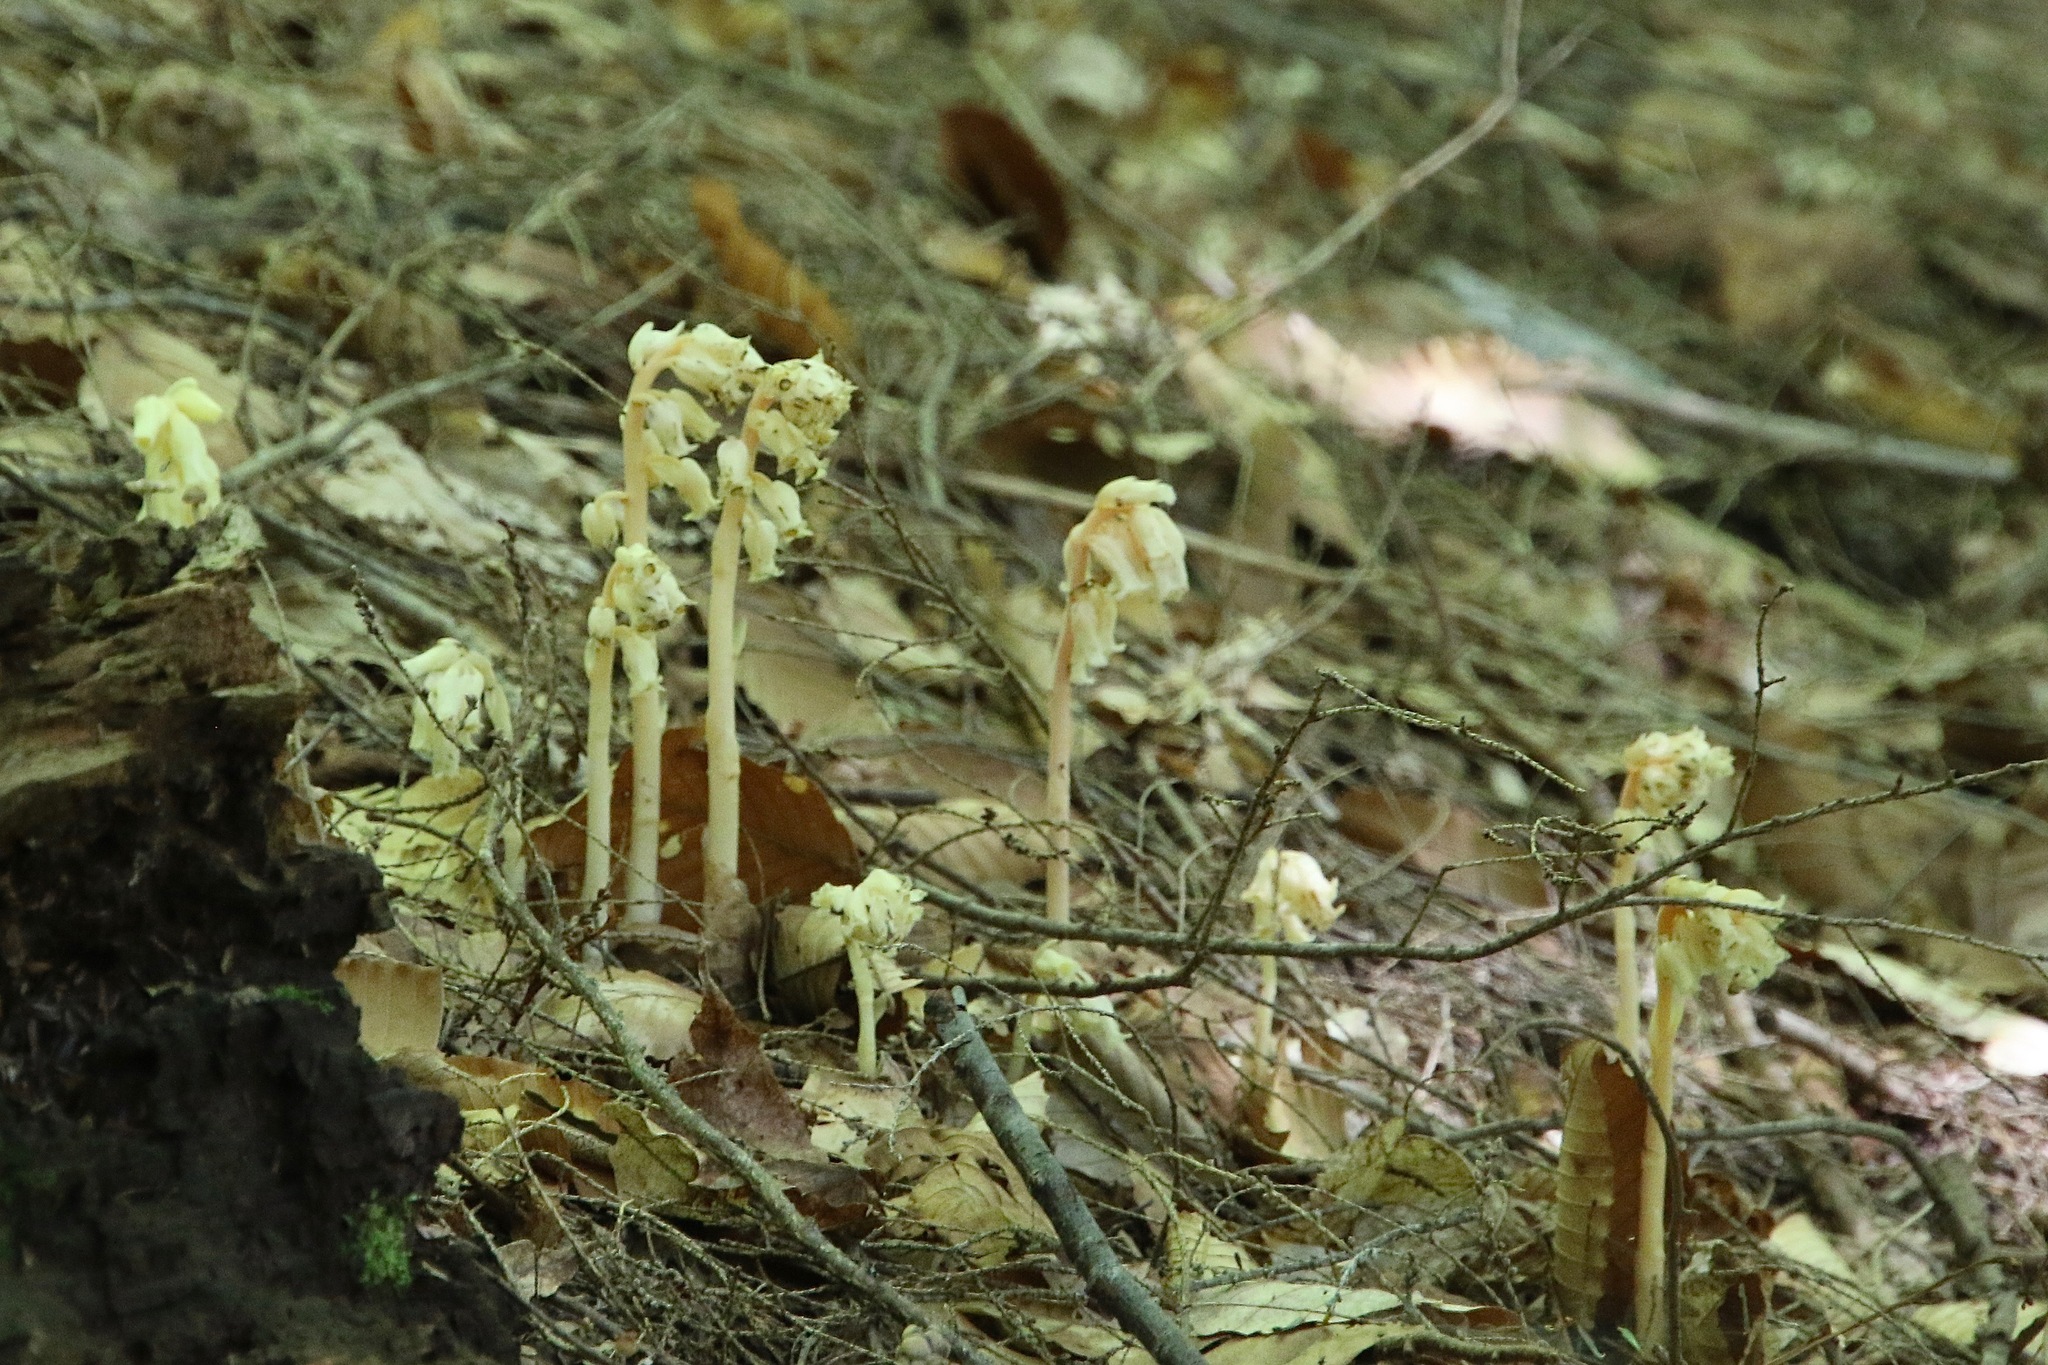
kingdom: Plantae
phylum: Tracheophyta
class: Magnoliopsida
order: Ericales
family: Ericaceae
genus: Hypopitys
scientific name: Hypopitys monotropa
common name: Yellow bird's-nest
